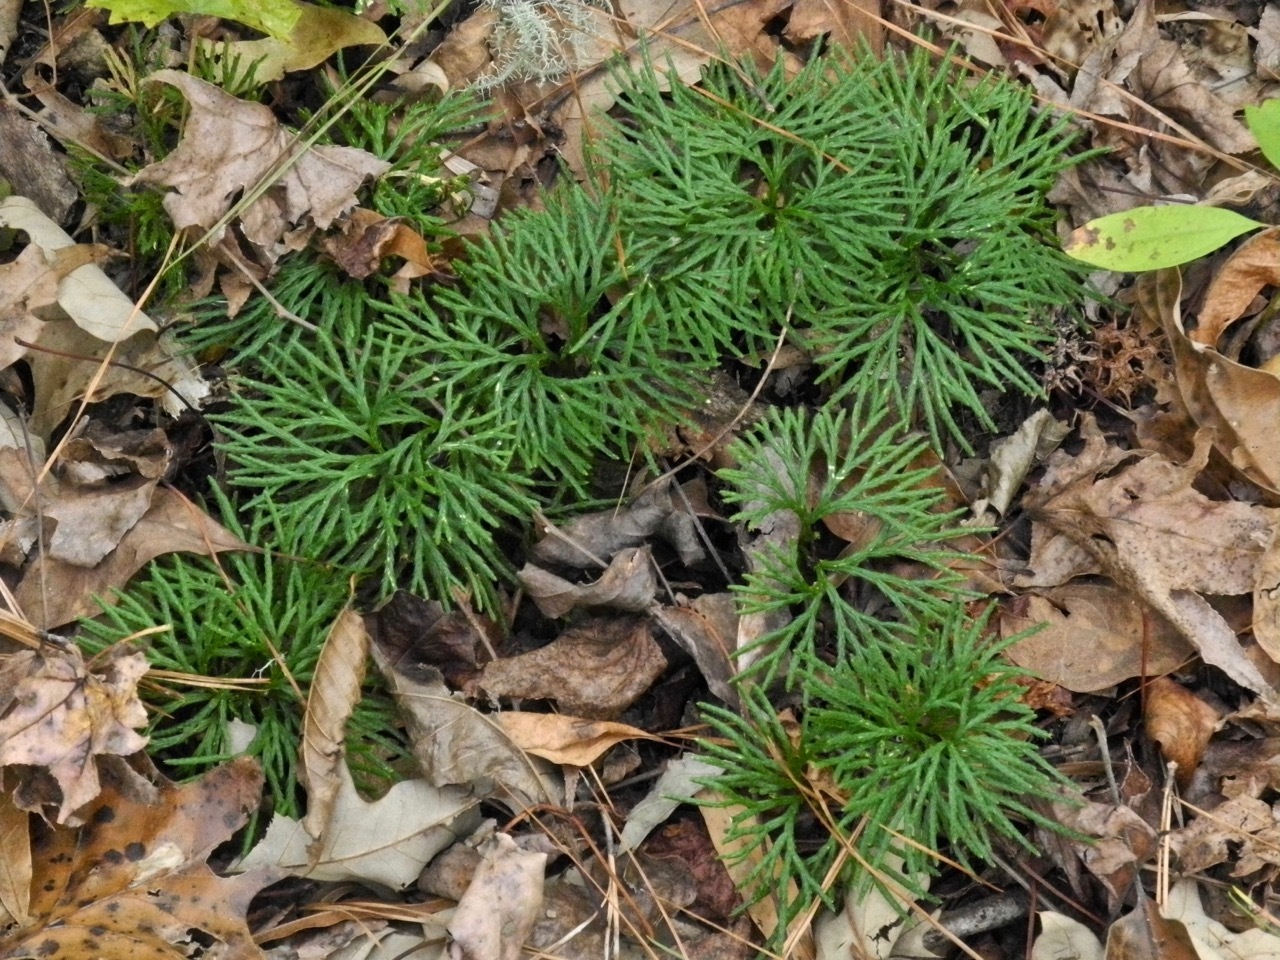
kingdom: Plantae
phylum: Tracheophyta
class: Lycopodiopsida
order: Lycopodiales
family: Lycopodiaceae
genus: Diphasiastrum
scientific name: Diphasiastrum digitatum
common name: Southern running-pine
